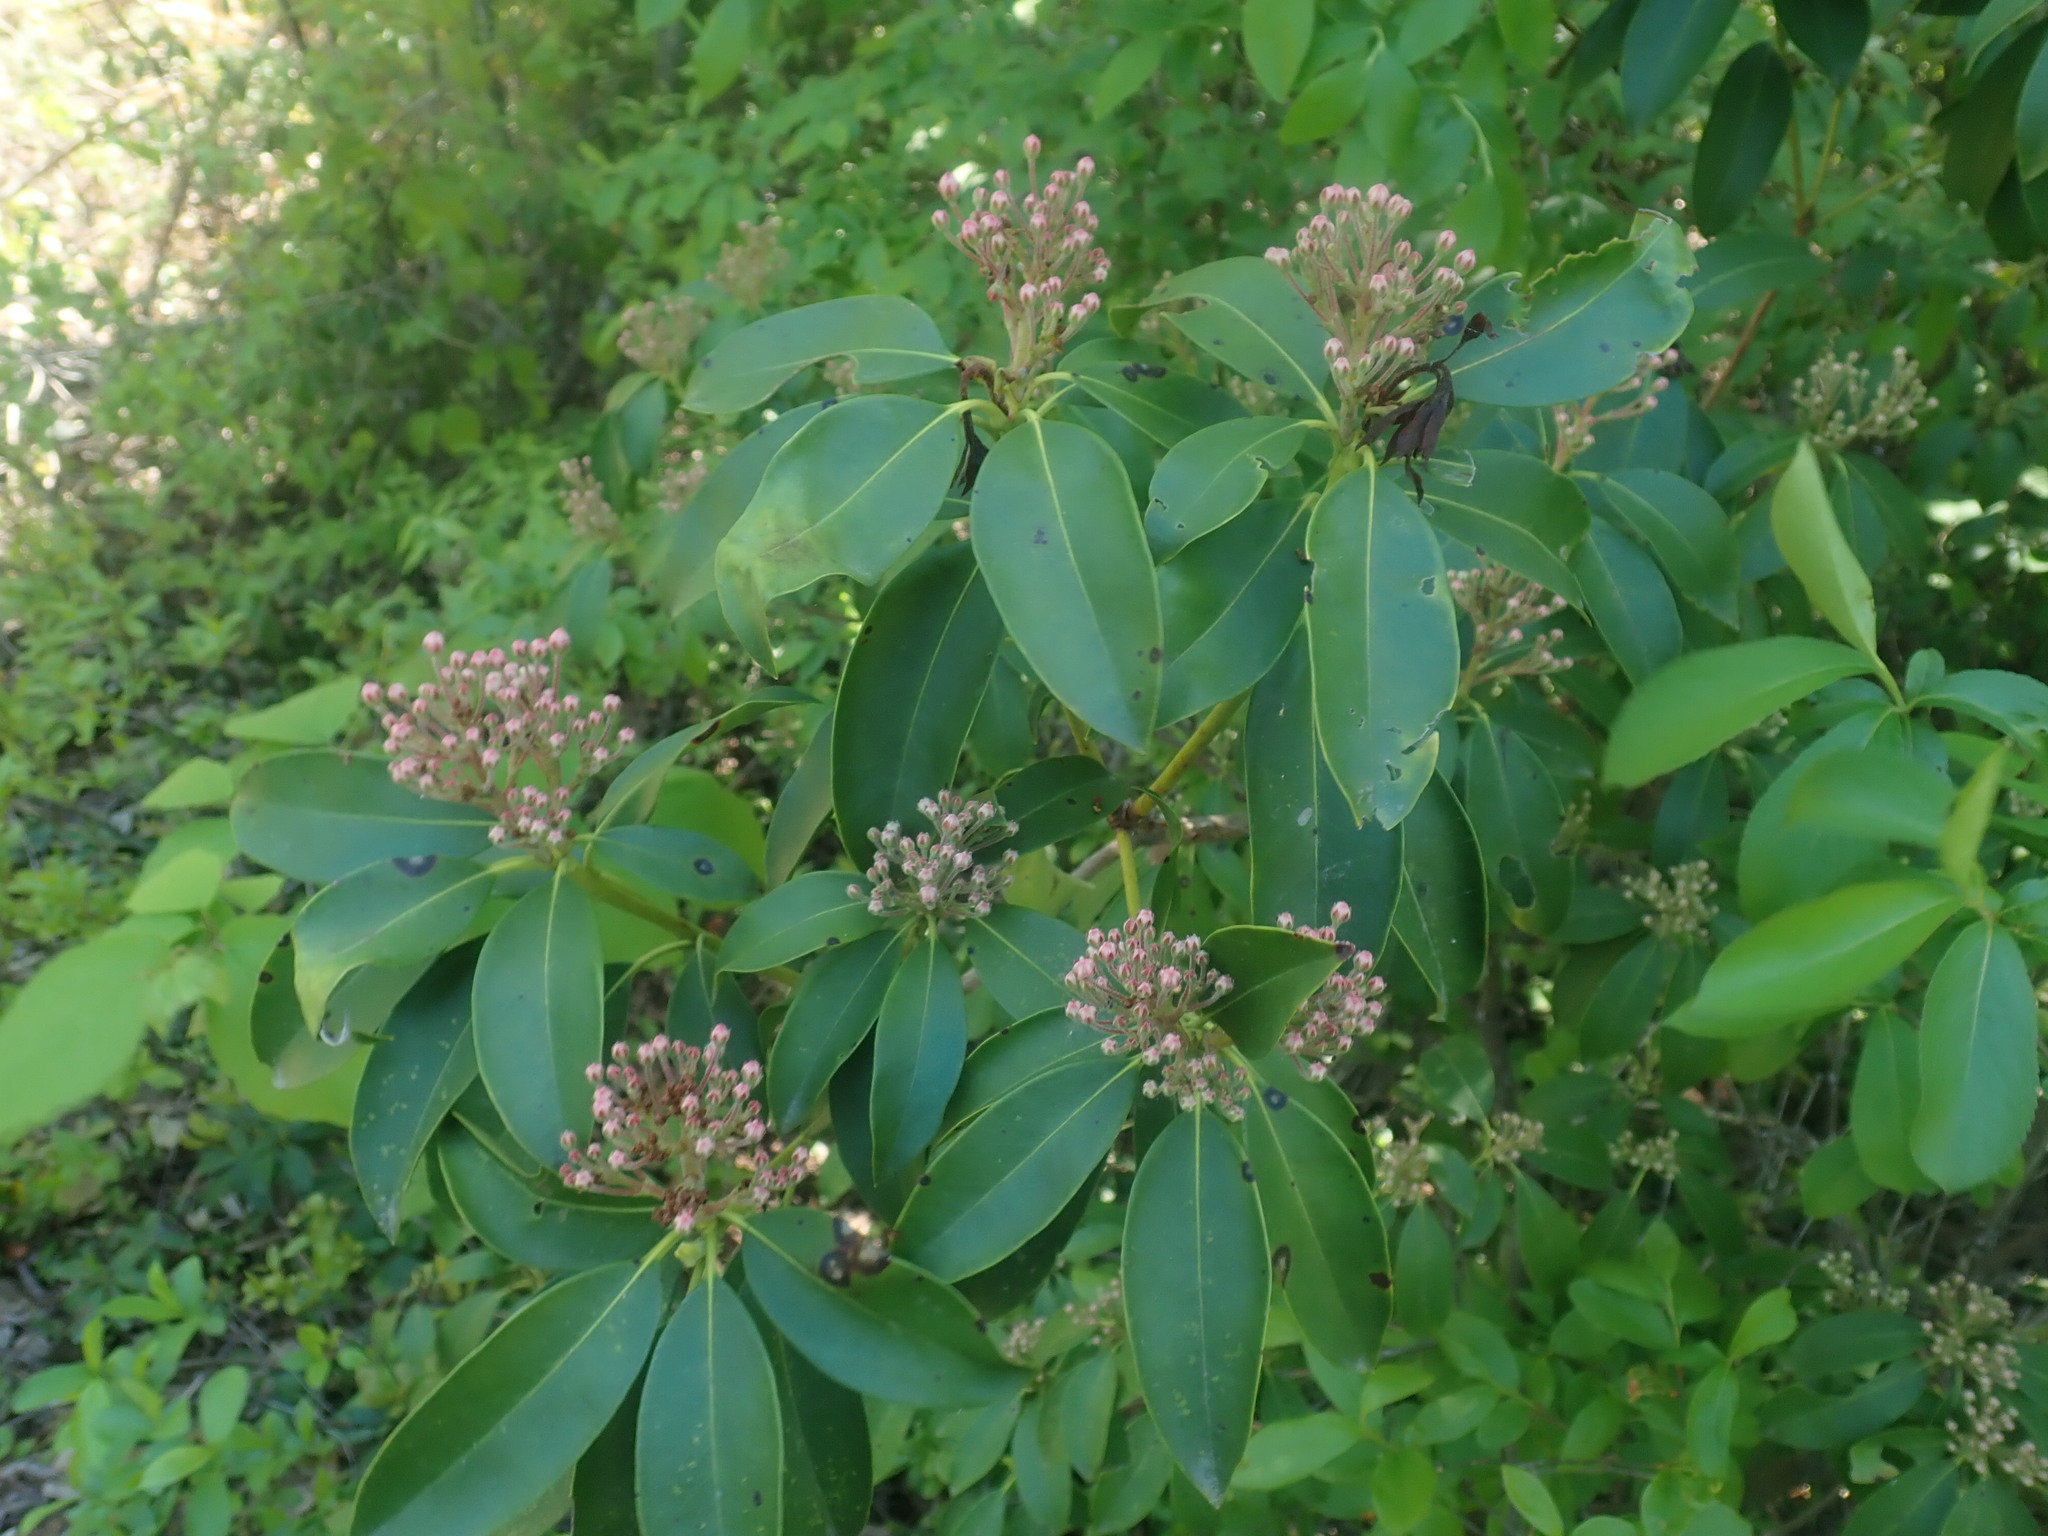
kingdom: Plantae
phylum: Tracheophyta
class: Magnoliopsida
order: Ericales
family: Ericaceae
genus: Kalmia
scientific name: Kalmia latifolia
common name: Mountain-laurel
